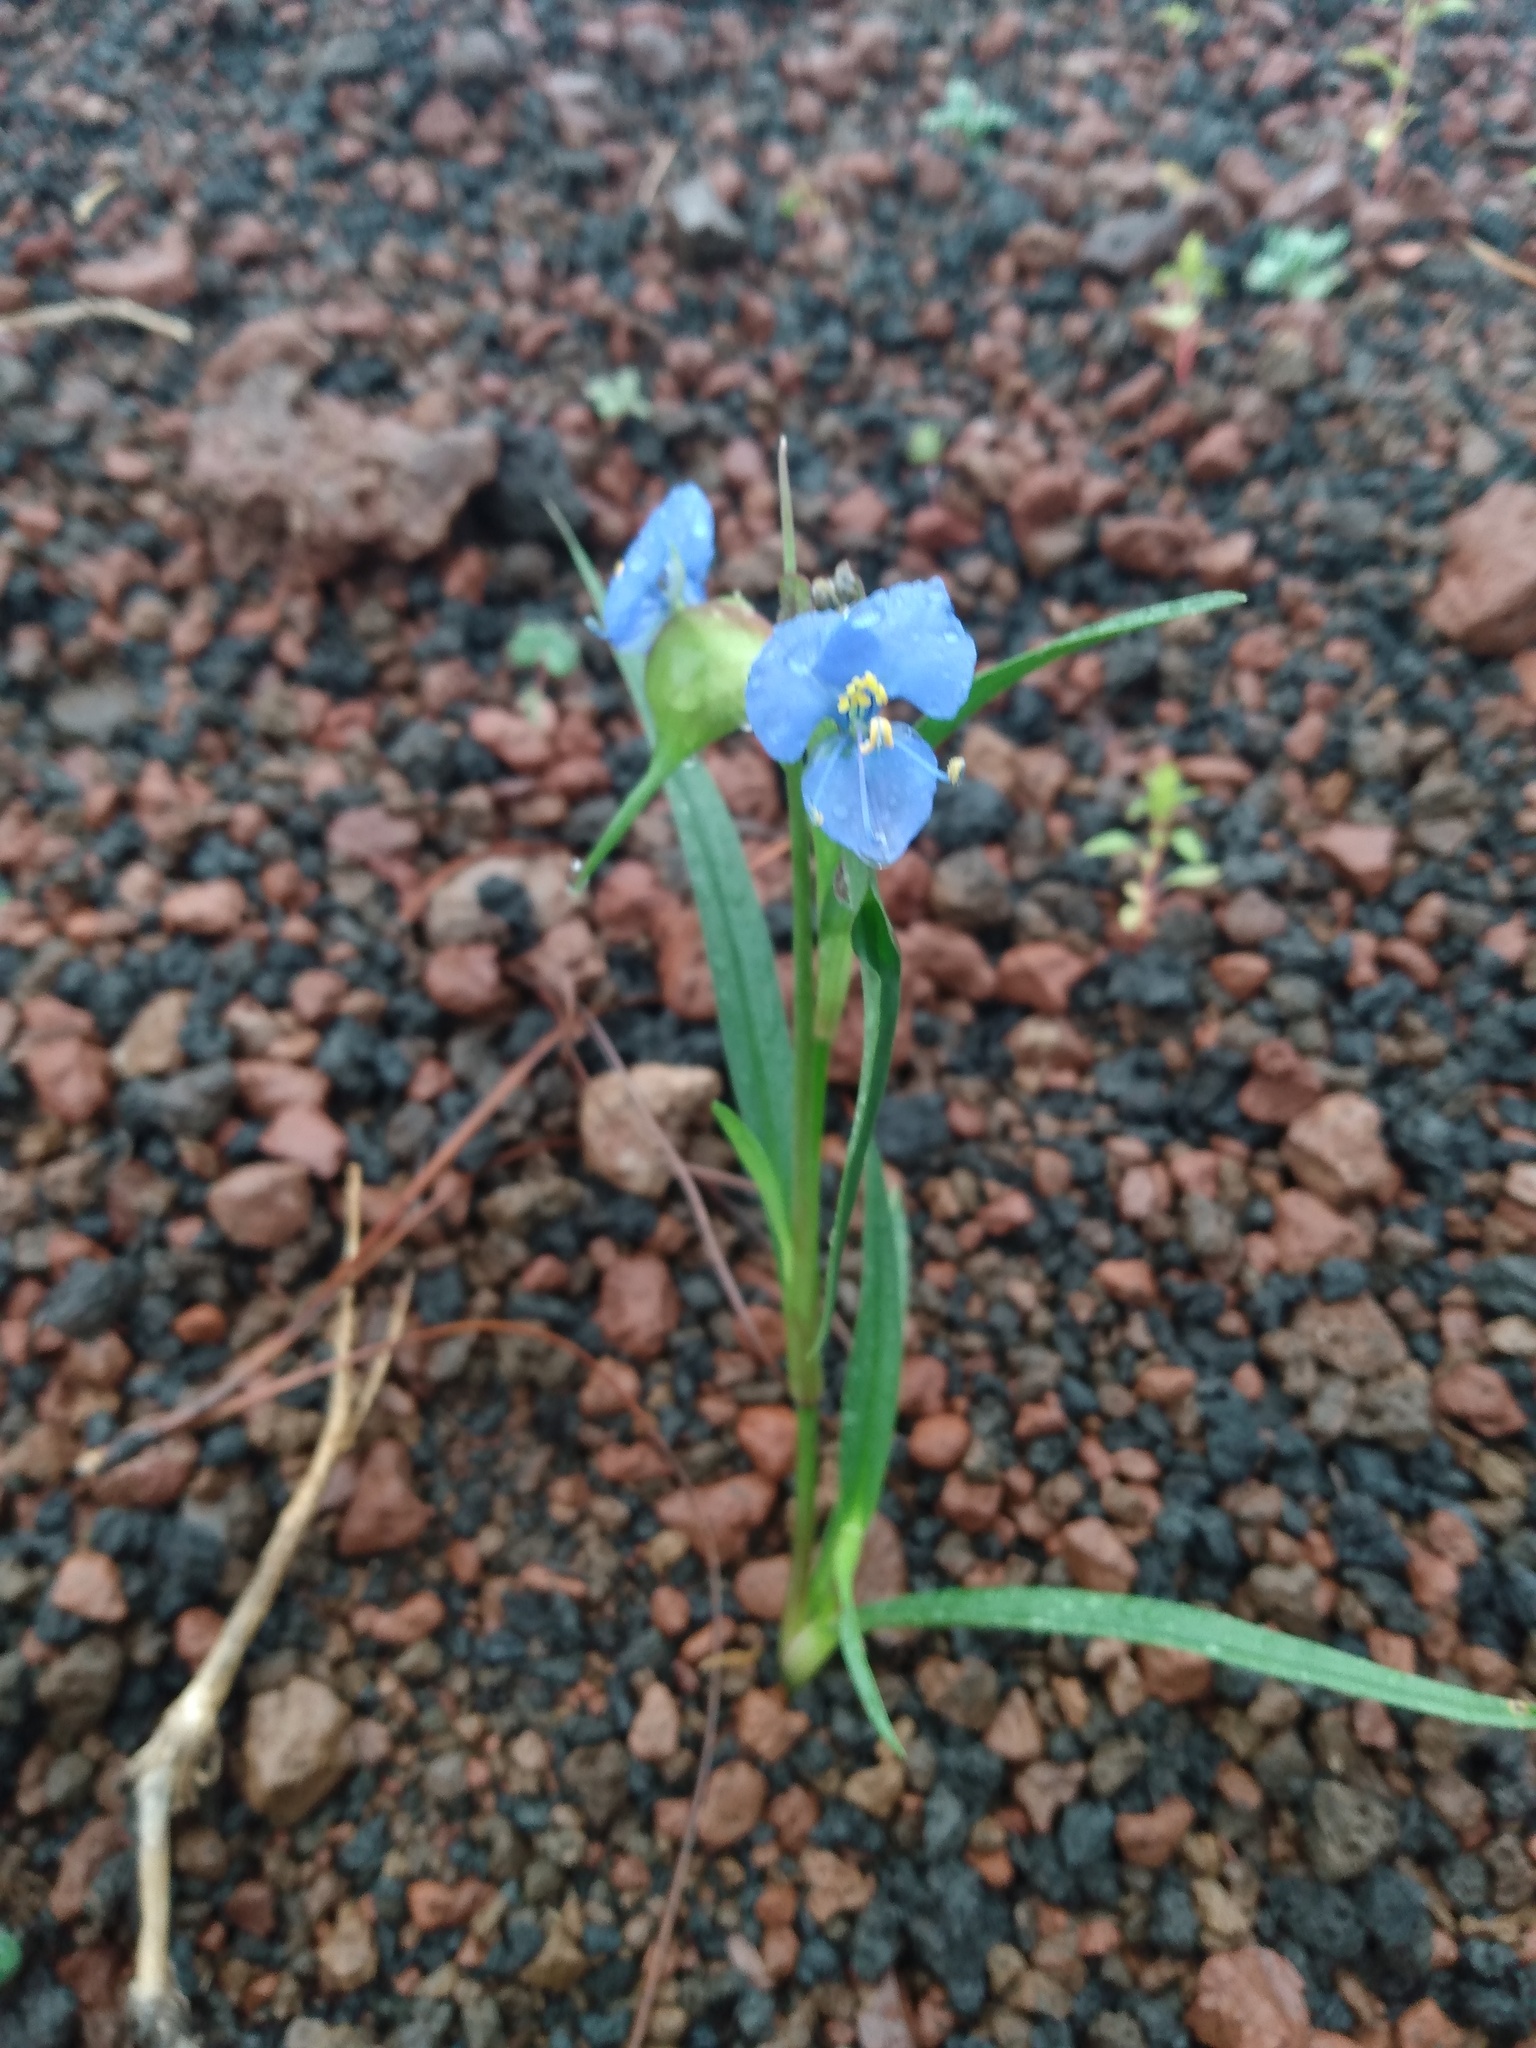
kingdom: Plantae
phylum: Tracheophyta
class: Liliopsida
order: Commelinales
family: Commelinaceae
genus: Commelina
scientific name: Commelina dianthifolia
